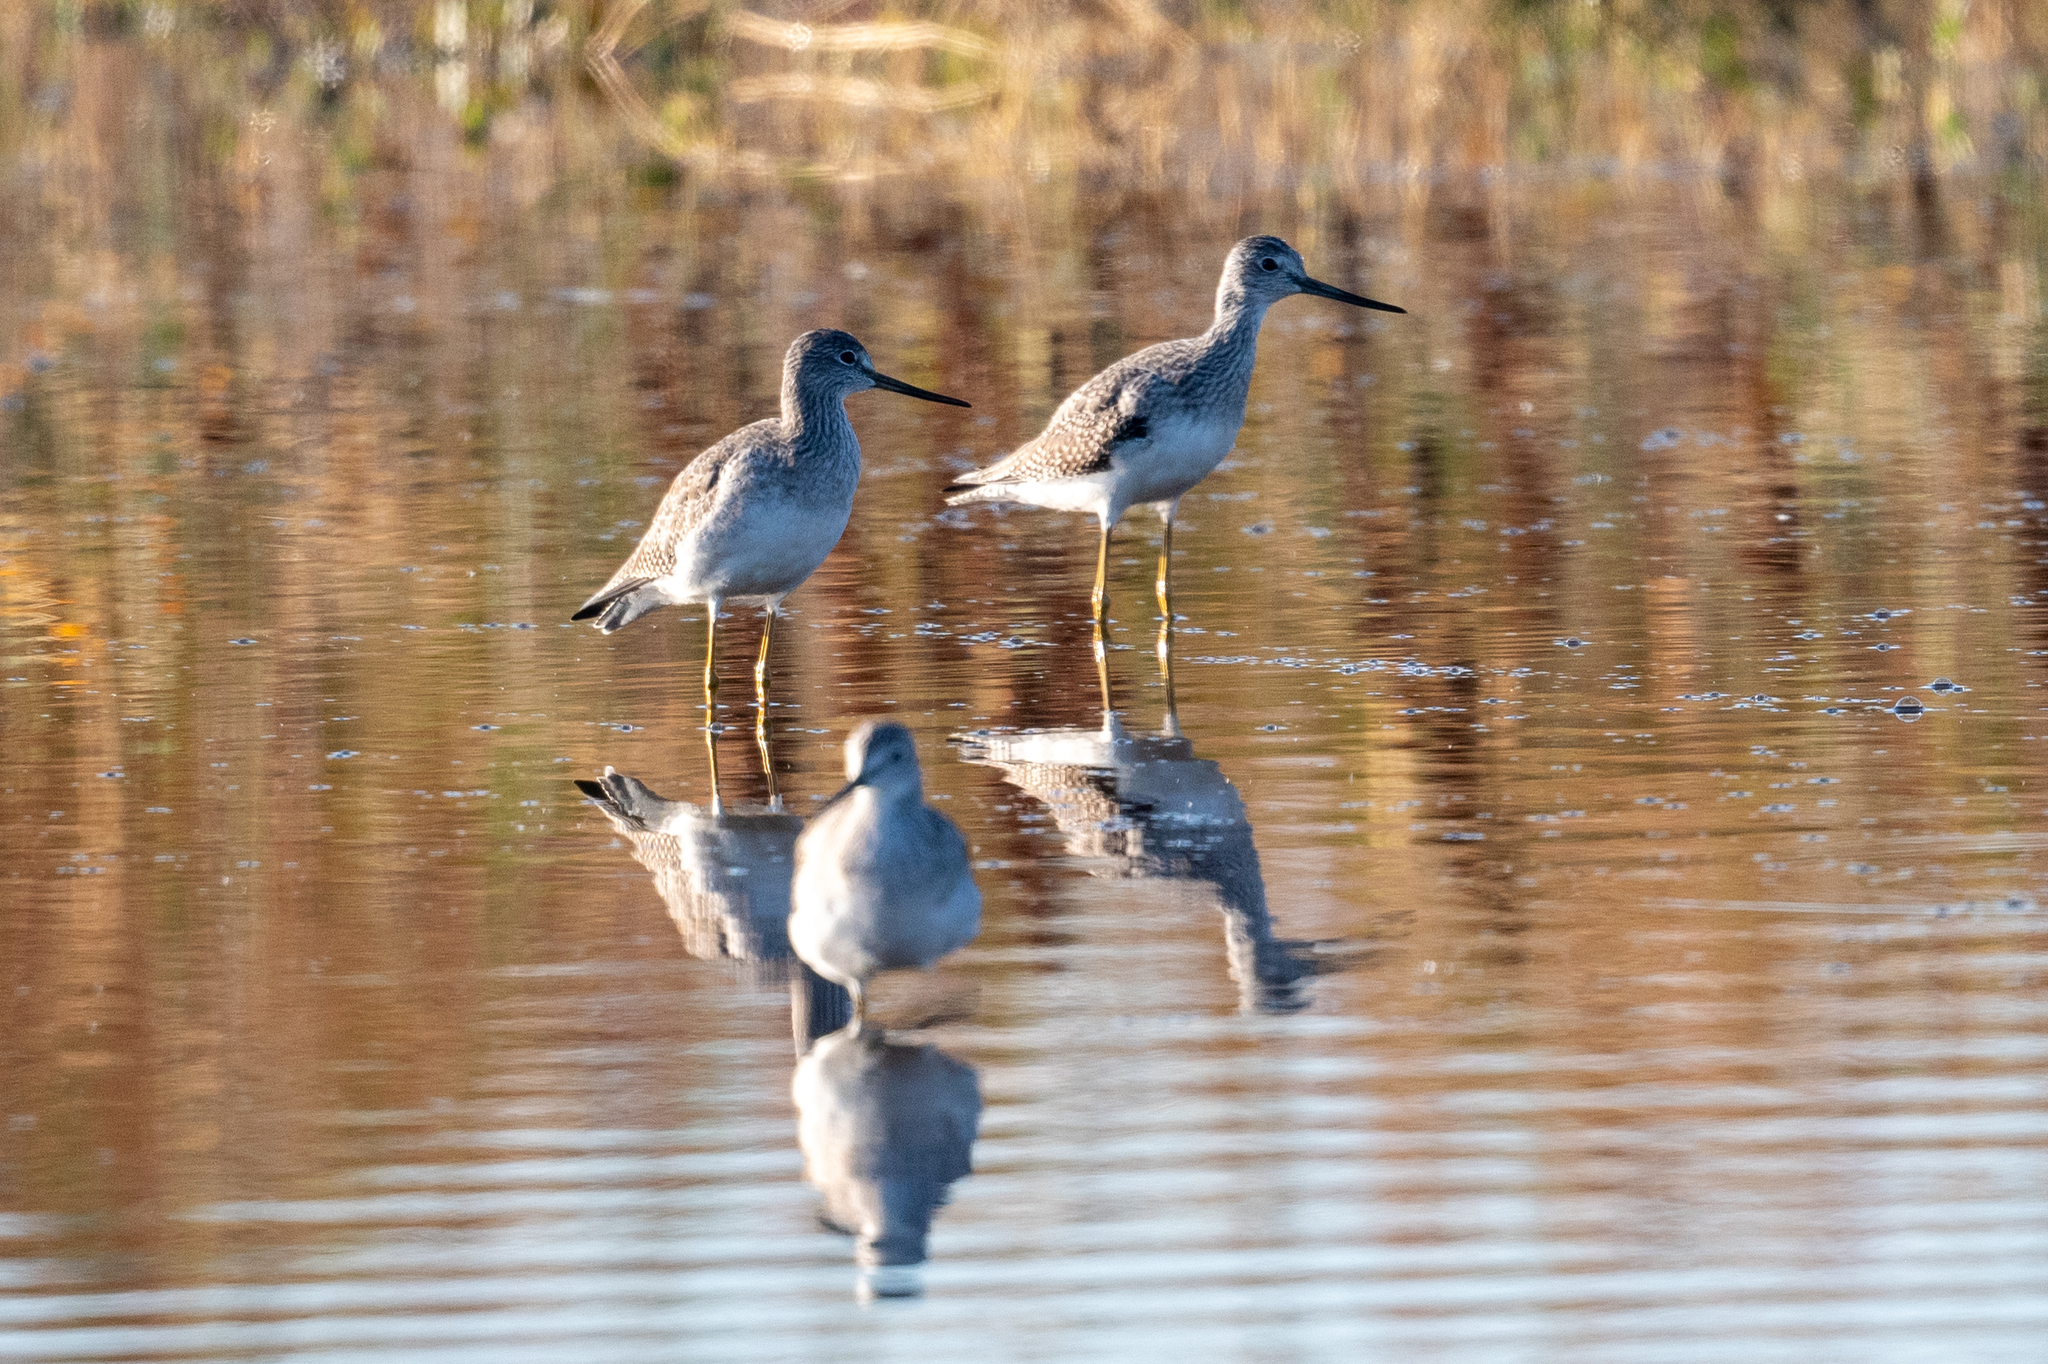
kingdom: Animalia
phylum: Chordata
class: Aves
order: Charadriiformes
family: Scolopacidae
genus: Tringa
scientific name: Tringa melanoleuca
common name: Greater yellowlegs
